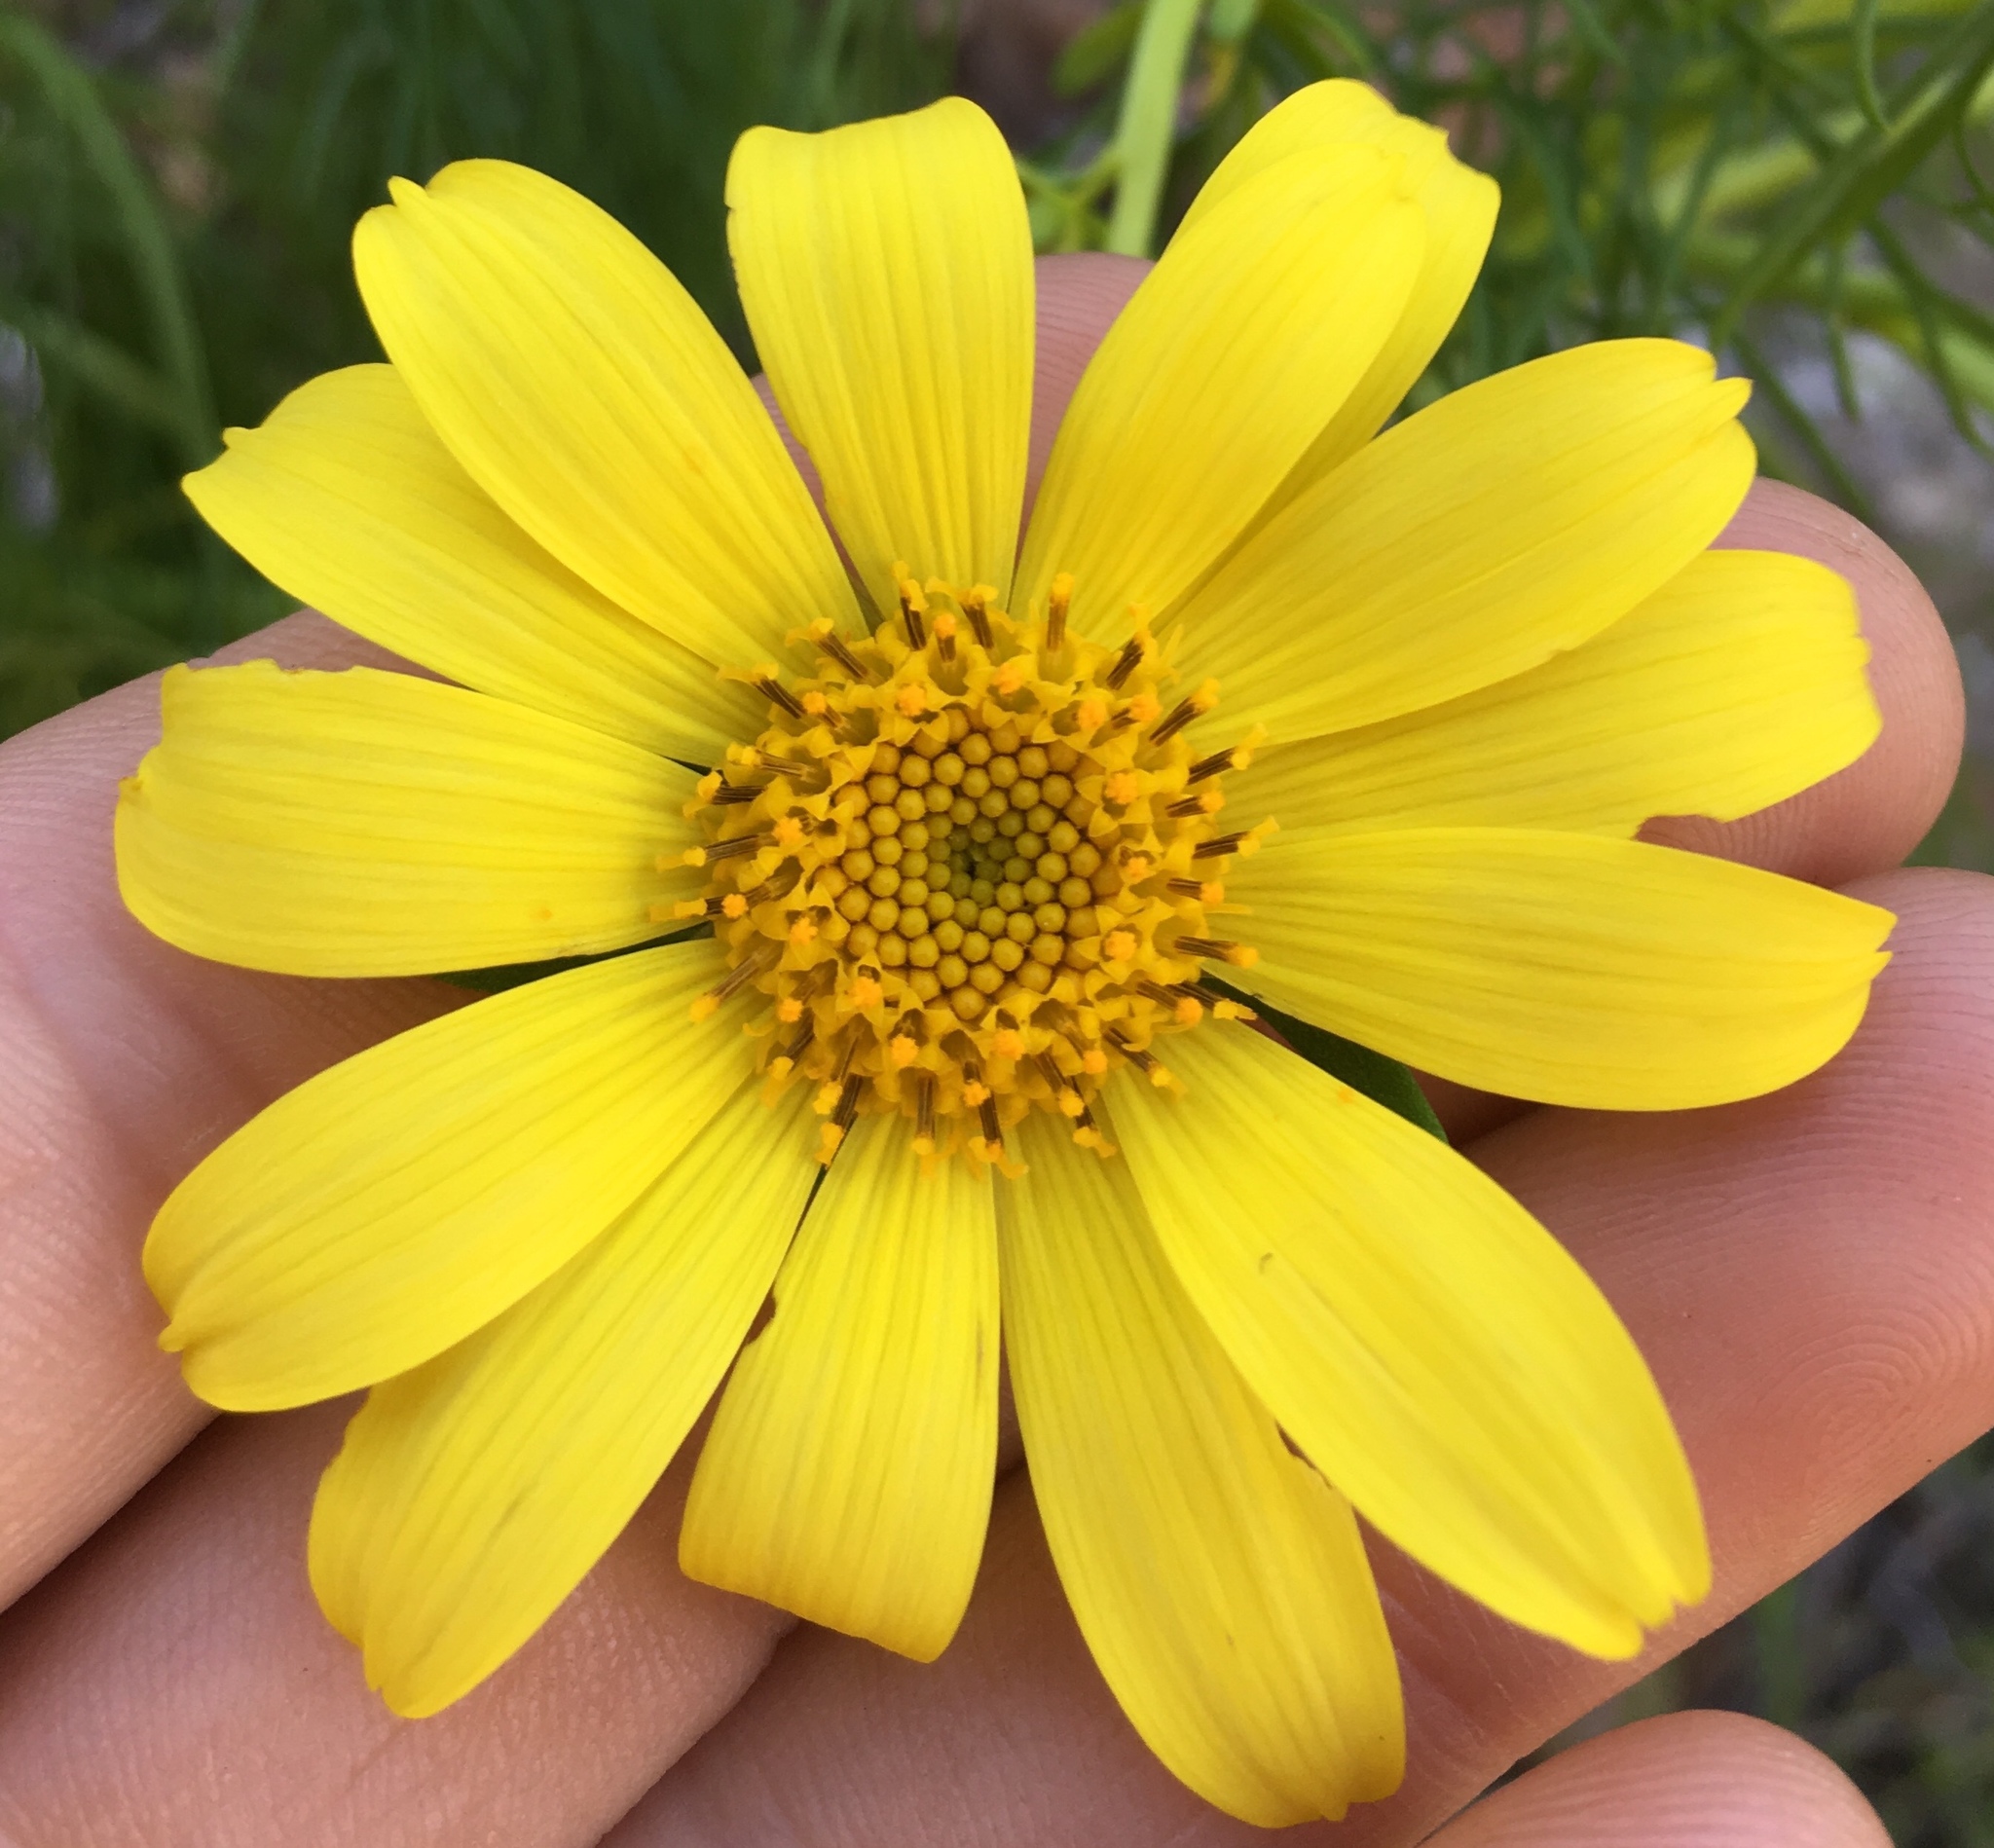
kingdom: Plantae
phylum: Tracheophyta
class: Magnoliopsida
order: Asterales
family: Asteraceae
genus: Coreopsis
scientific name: Coreopsis gigantea
